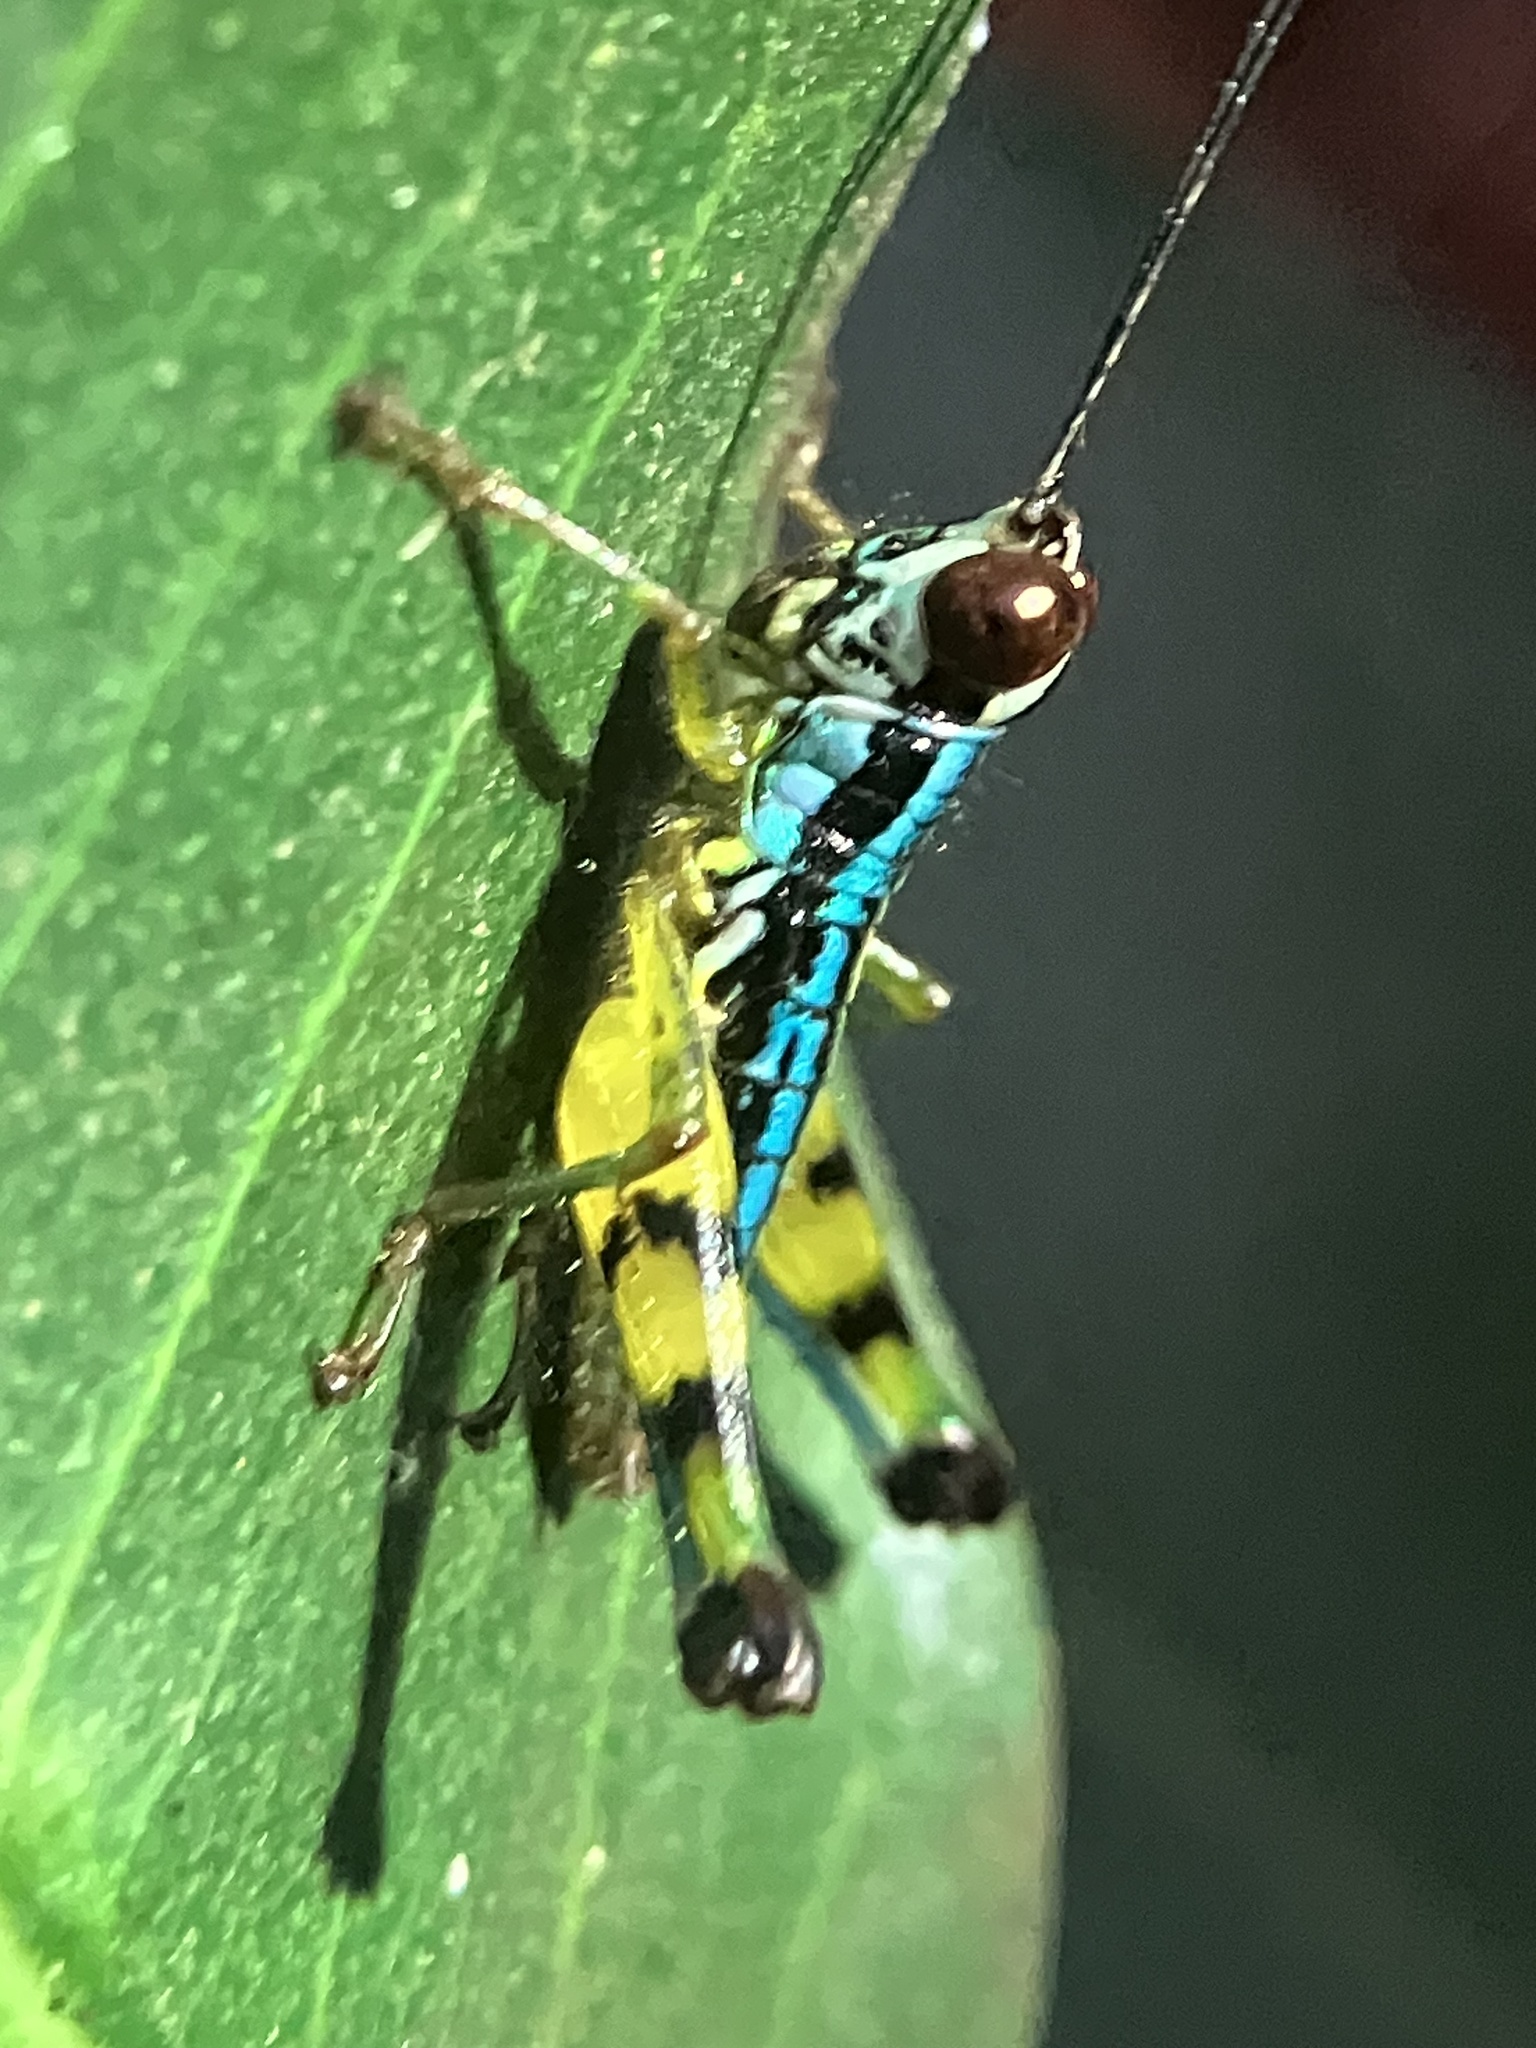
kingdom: Animalia
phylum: Arthropoda
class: Insecta
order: Orthoptera
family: Acrididae
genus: Genimen
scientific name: Genimen prasinum
